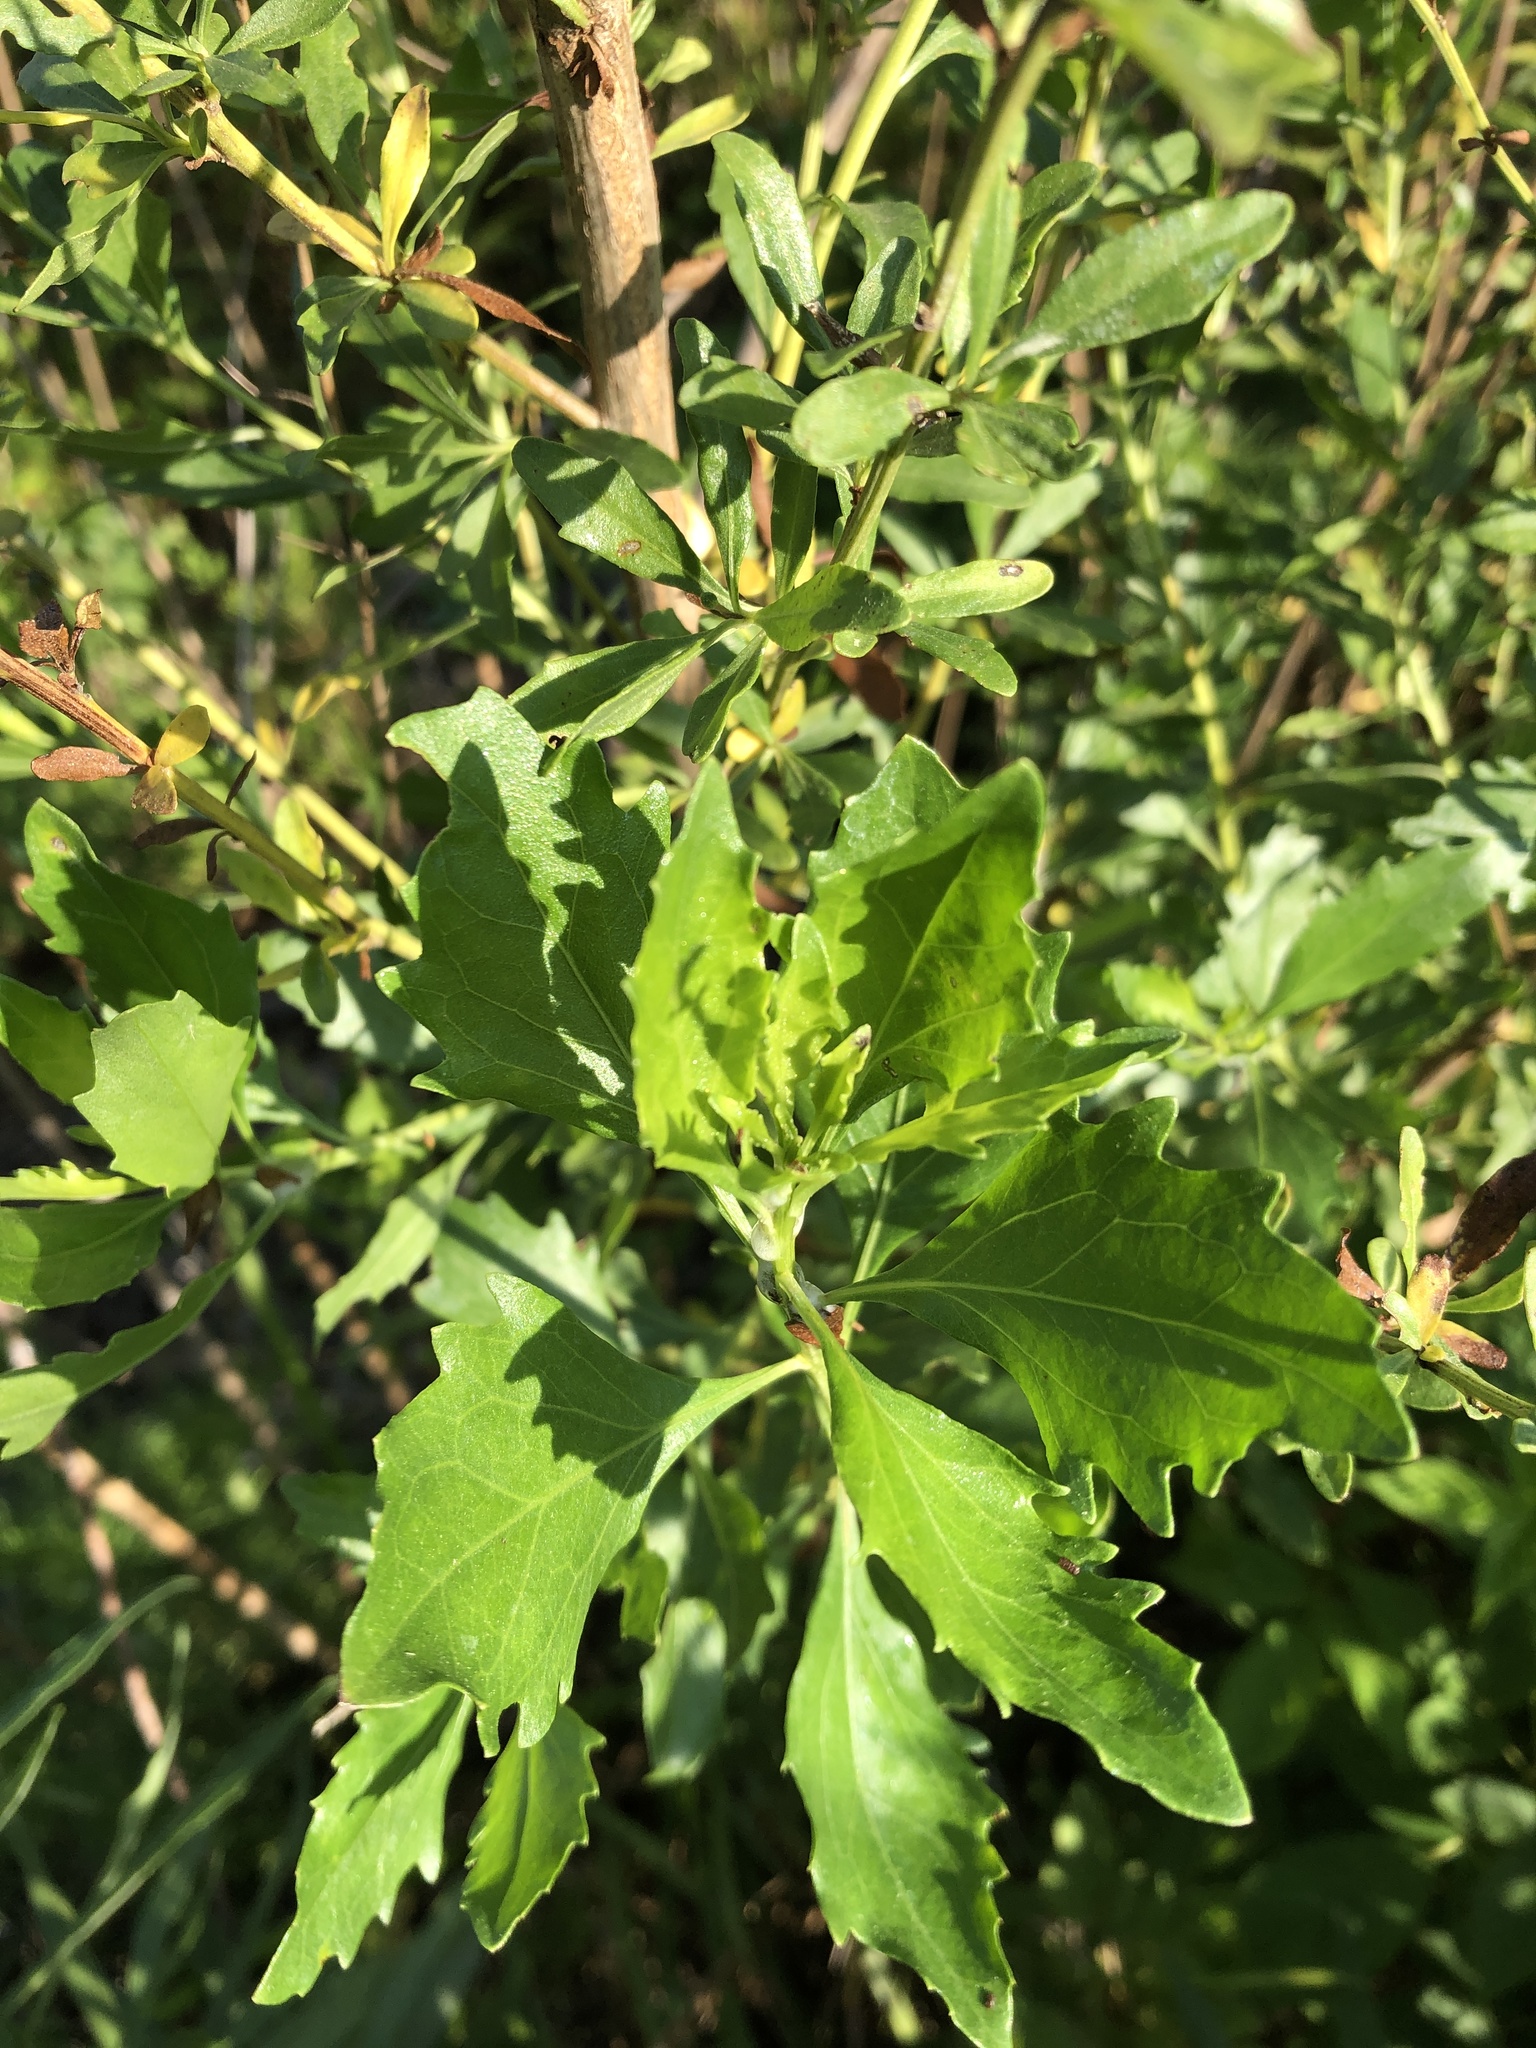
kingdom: Plantae
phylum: Tracheophyta
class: Magnoliopsida
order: Asterales
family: Asteraceae
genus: Baccharis
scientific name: Baccharis halimifolia
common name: Eastern baccharis
